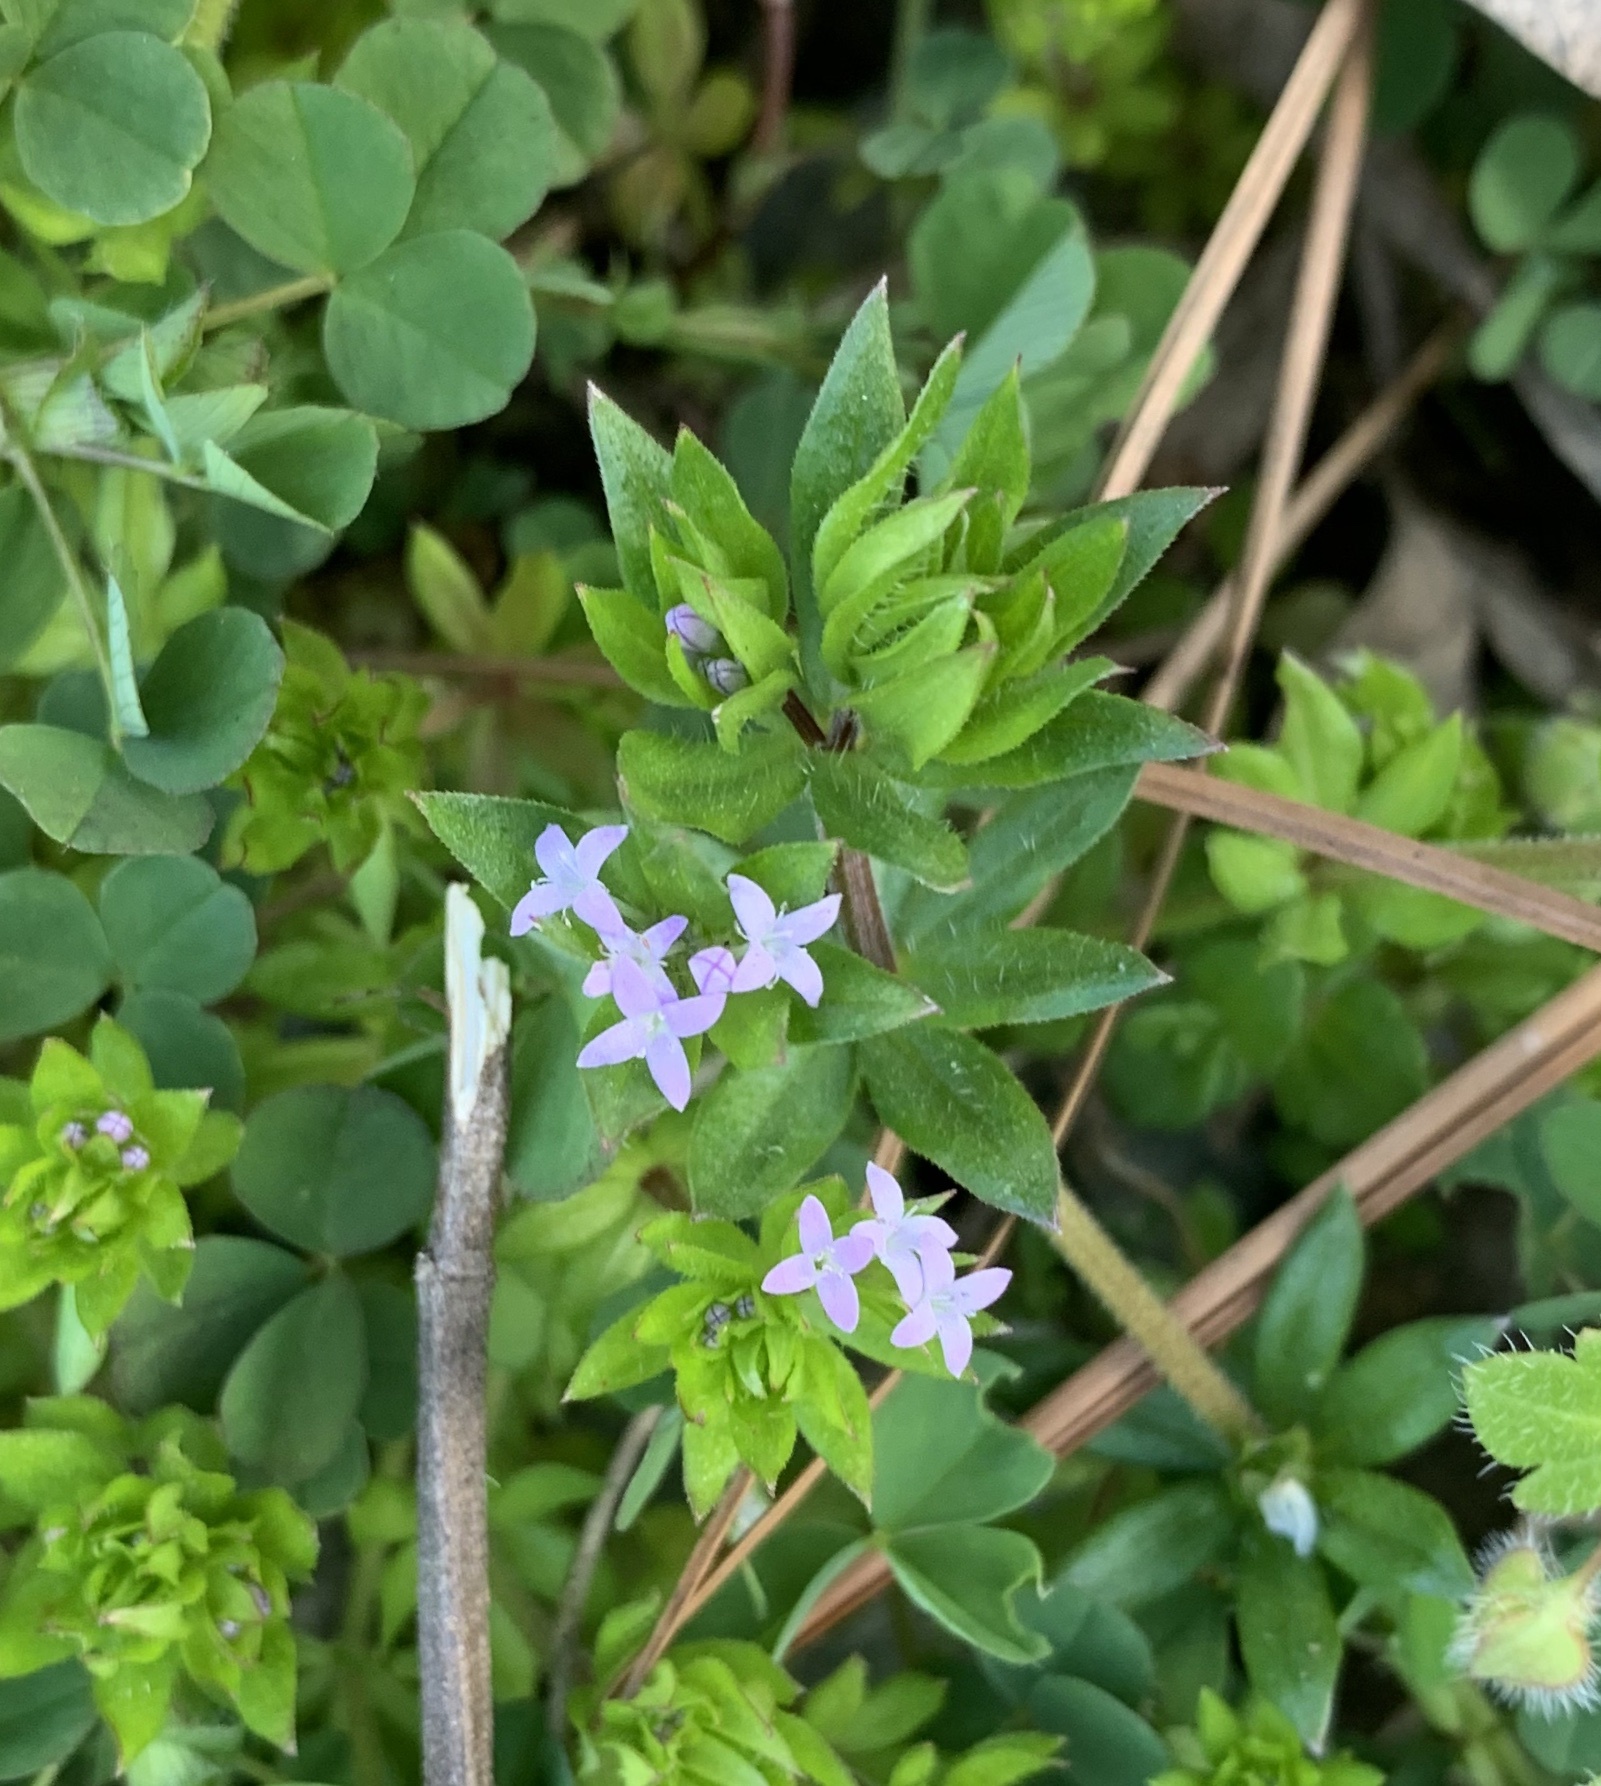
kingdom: Plantae
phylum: Tracheophyta
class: Magnoliopsida
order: Gentianales
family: Rubiaceae
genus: Sherardia
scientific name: Sherardia arvensis
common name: Field madder
